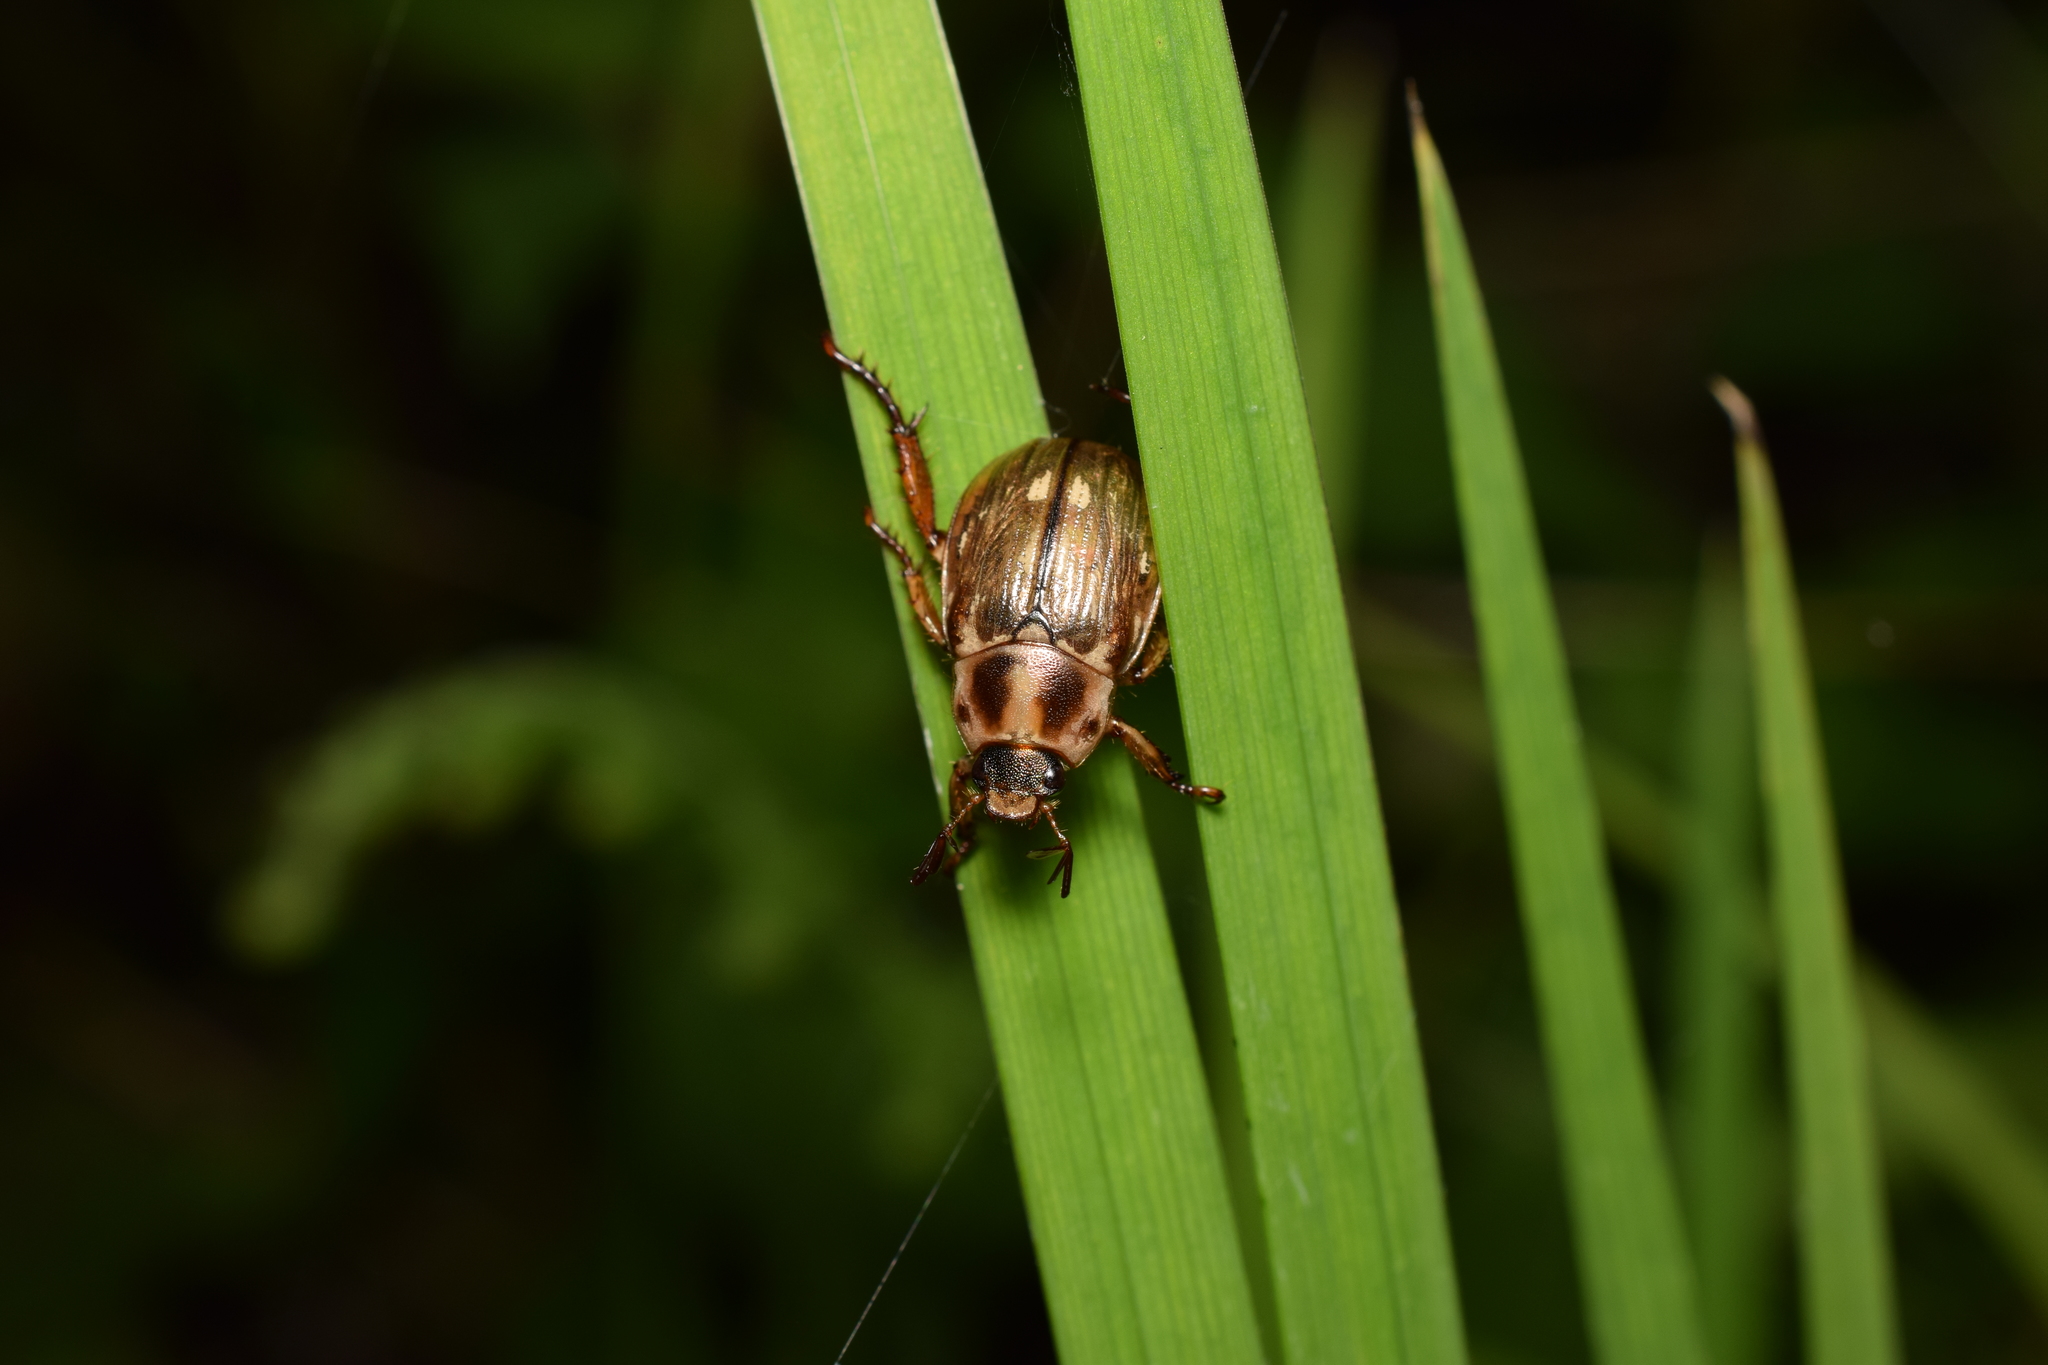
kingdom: Animalia
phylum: Arthropoda
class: Insecta
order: Coleoptera
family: Scarabaeidae
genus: Exomala
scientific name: Exomala orientalis
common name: Oriental beetle
